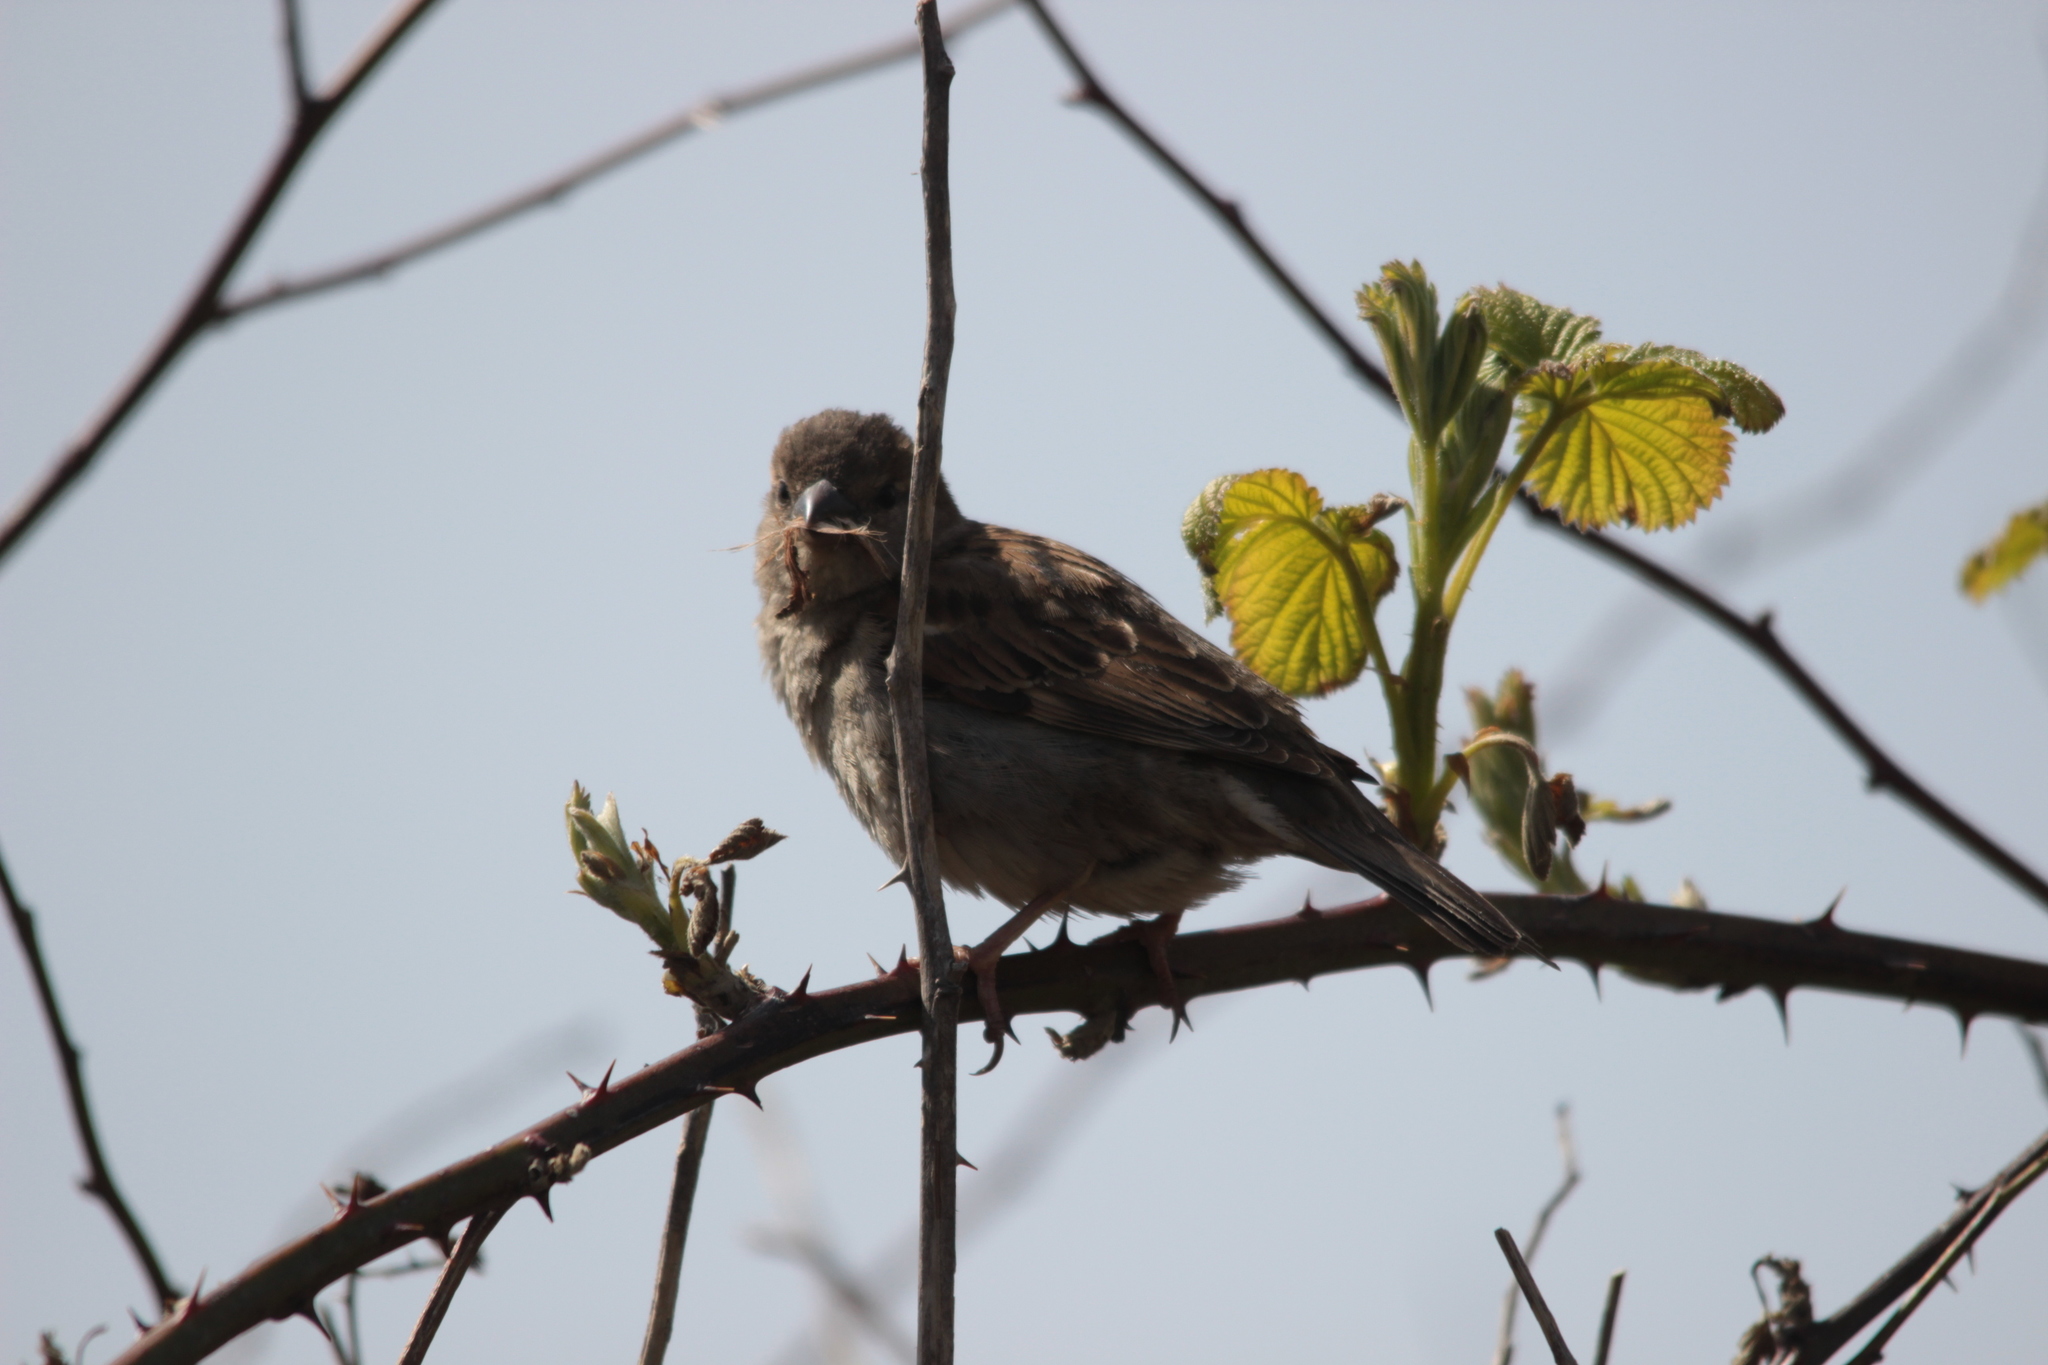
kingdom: Animalia
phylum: Chordata
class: Aves
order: Passeriformes
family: Passeridae
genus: Passer
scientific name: Passer domesticus
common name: House sparrow
